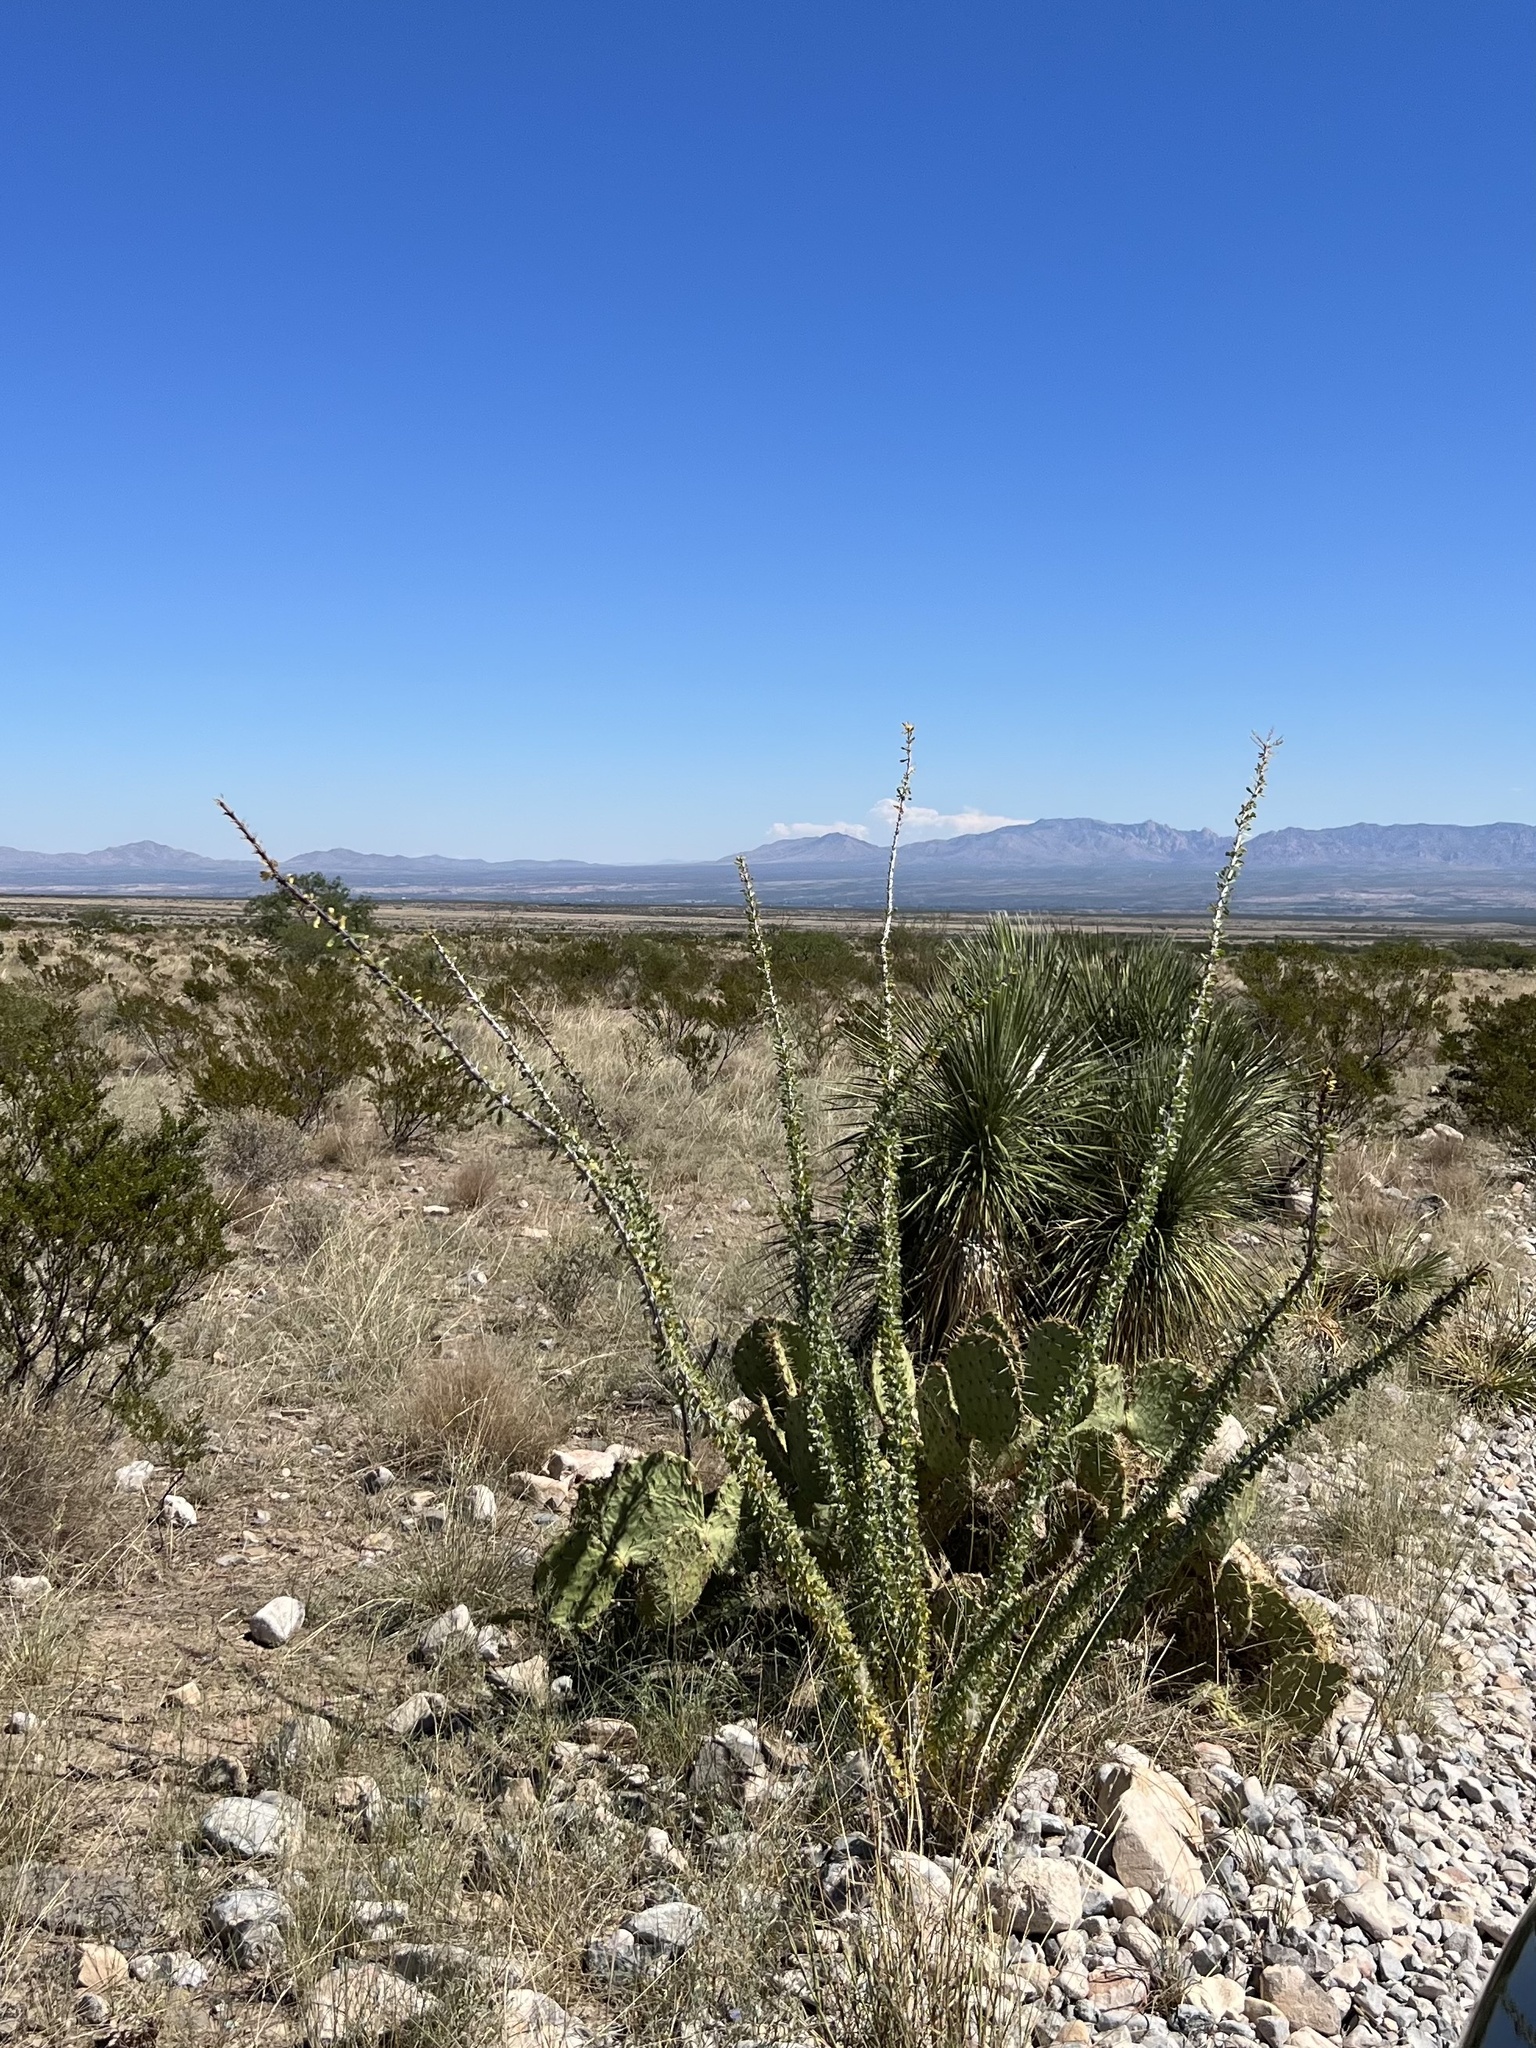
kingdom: Plantae
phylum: Tracheophyta
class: Magnoliopsida
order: Ericales
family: Fouquieriaceae
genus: Fouquieria
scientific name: Fouquieria splendens
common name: Vine-cactus
